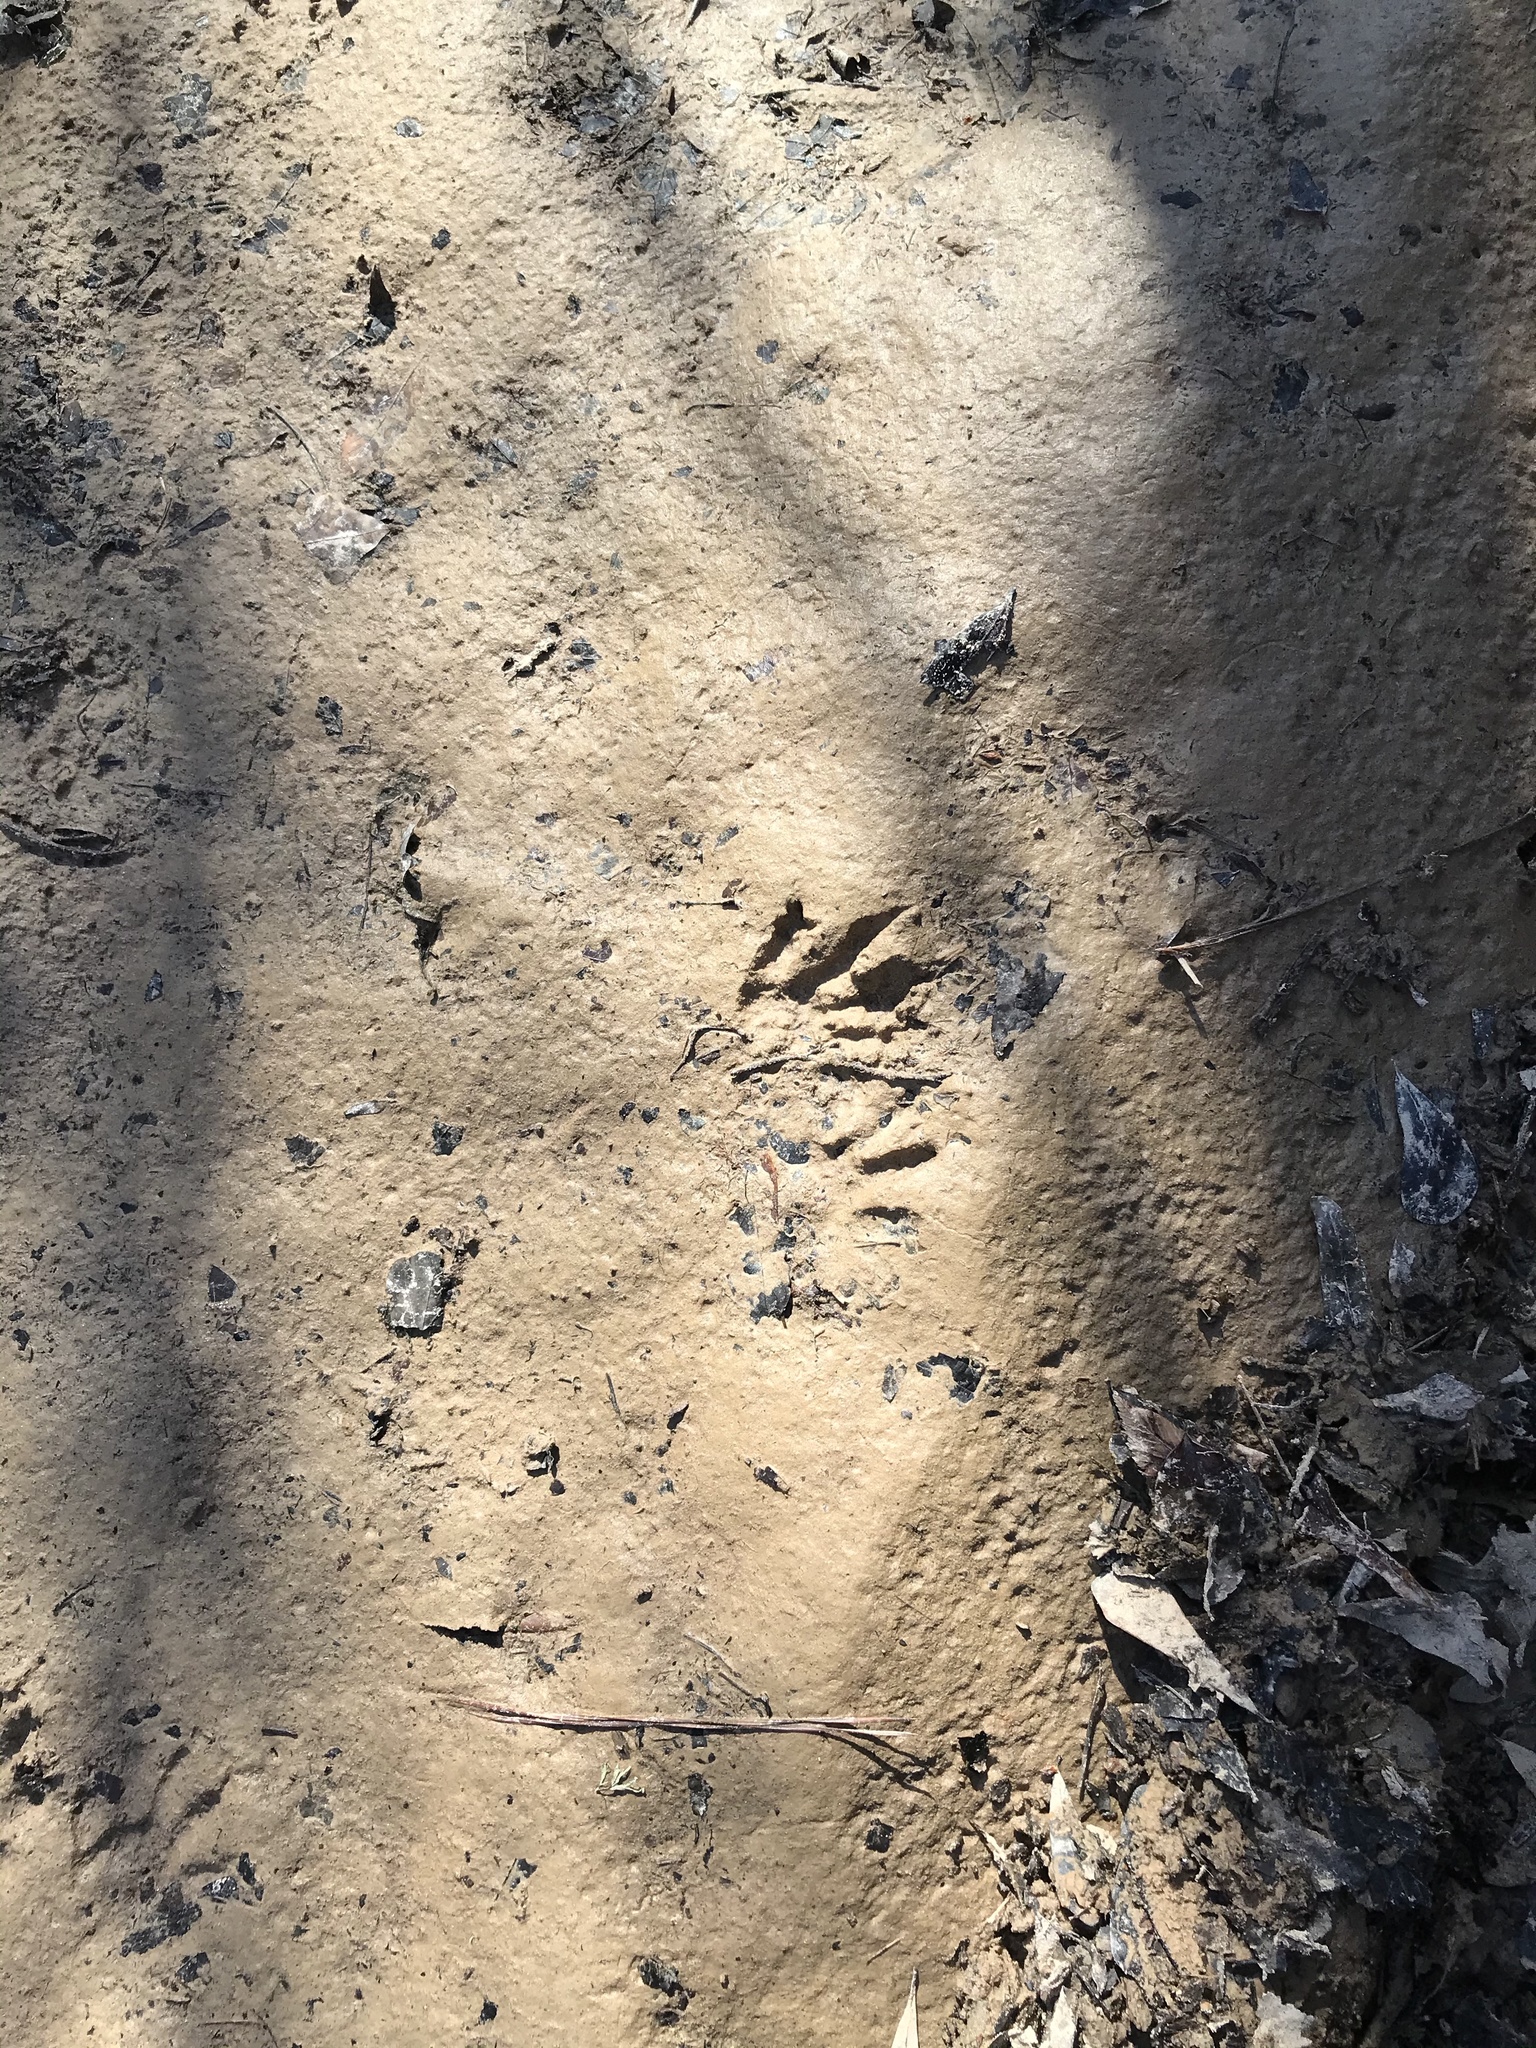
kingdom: Animalia
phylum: Chordata
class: Mammalia
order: Carnivora
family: Procyonidae
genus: Procyon
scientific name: Procyon lotor
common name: Raccoon
